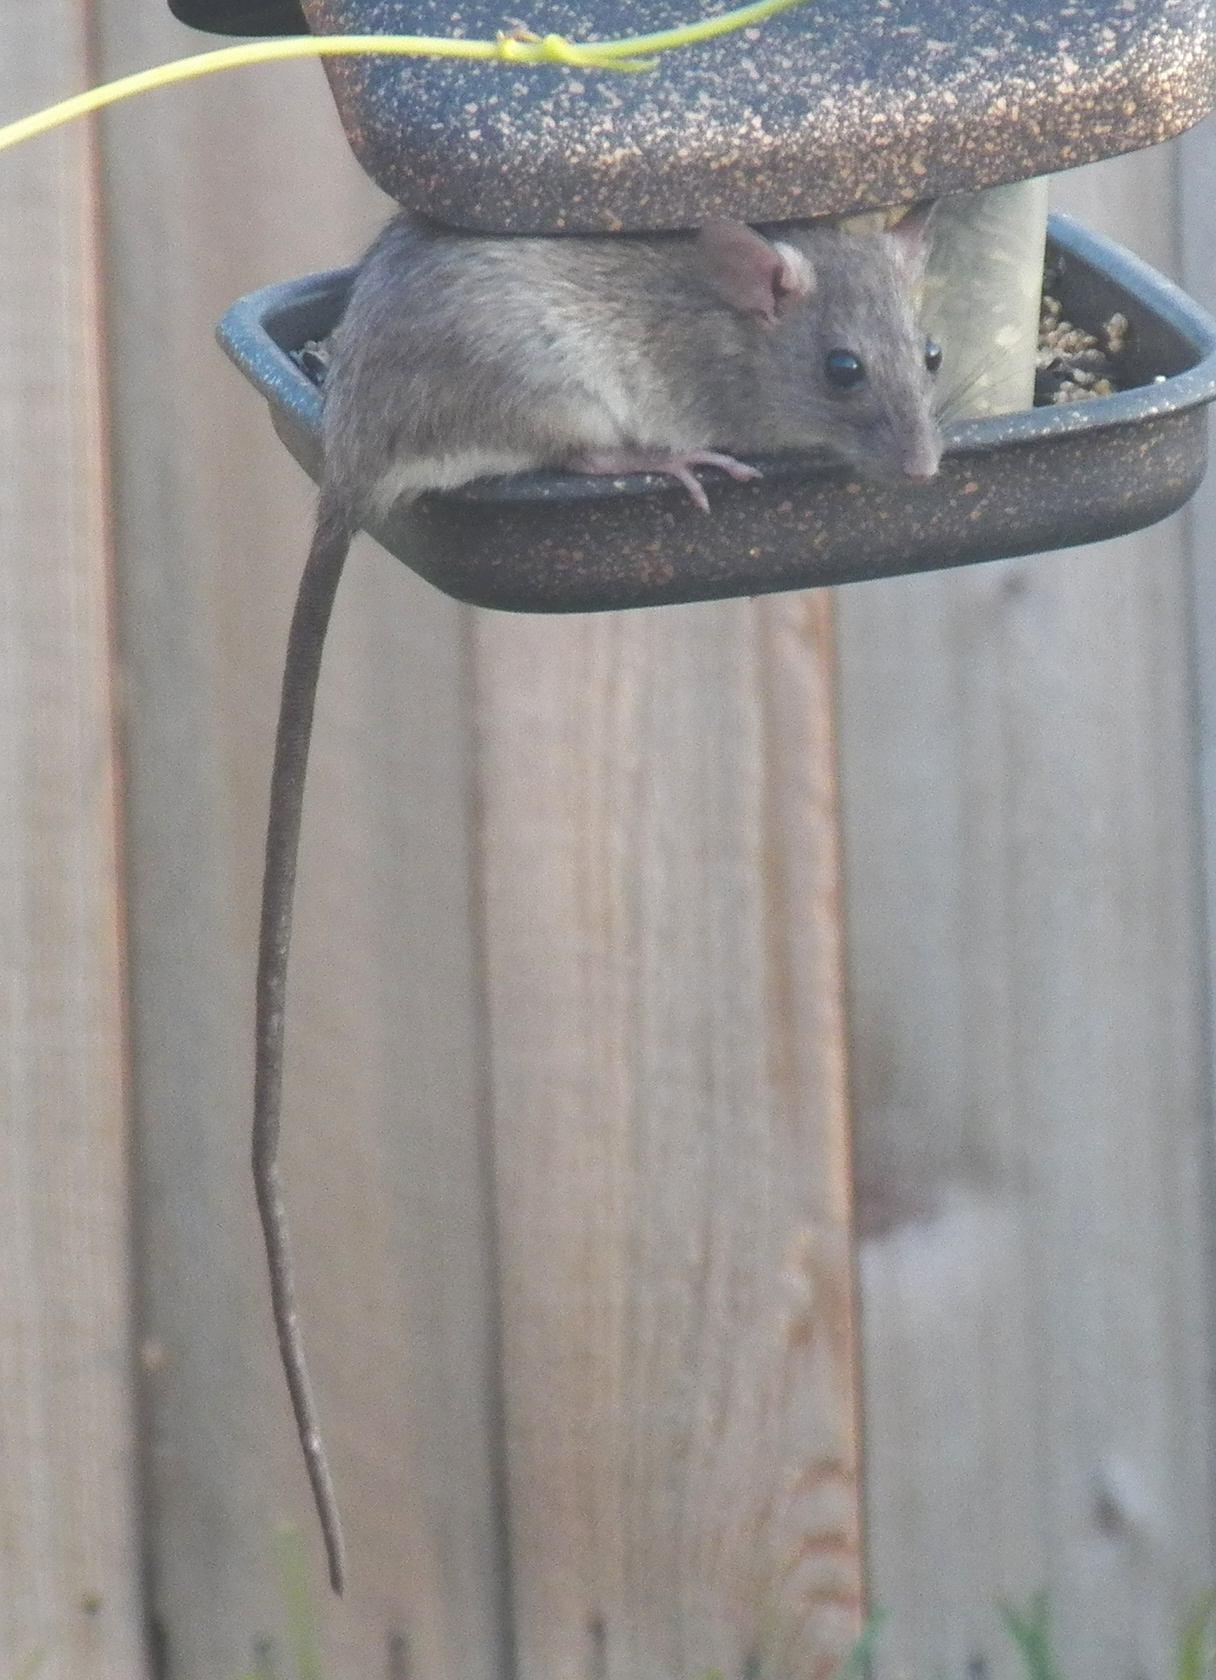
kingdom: Animalia
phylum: Chordata
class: Mammalia
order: Rodentia
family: Muridae
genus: Rattus
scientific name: Rattus rattus
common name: Black rat
